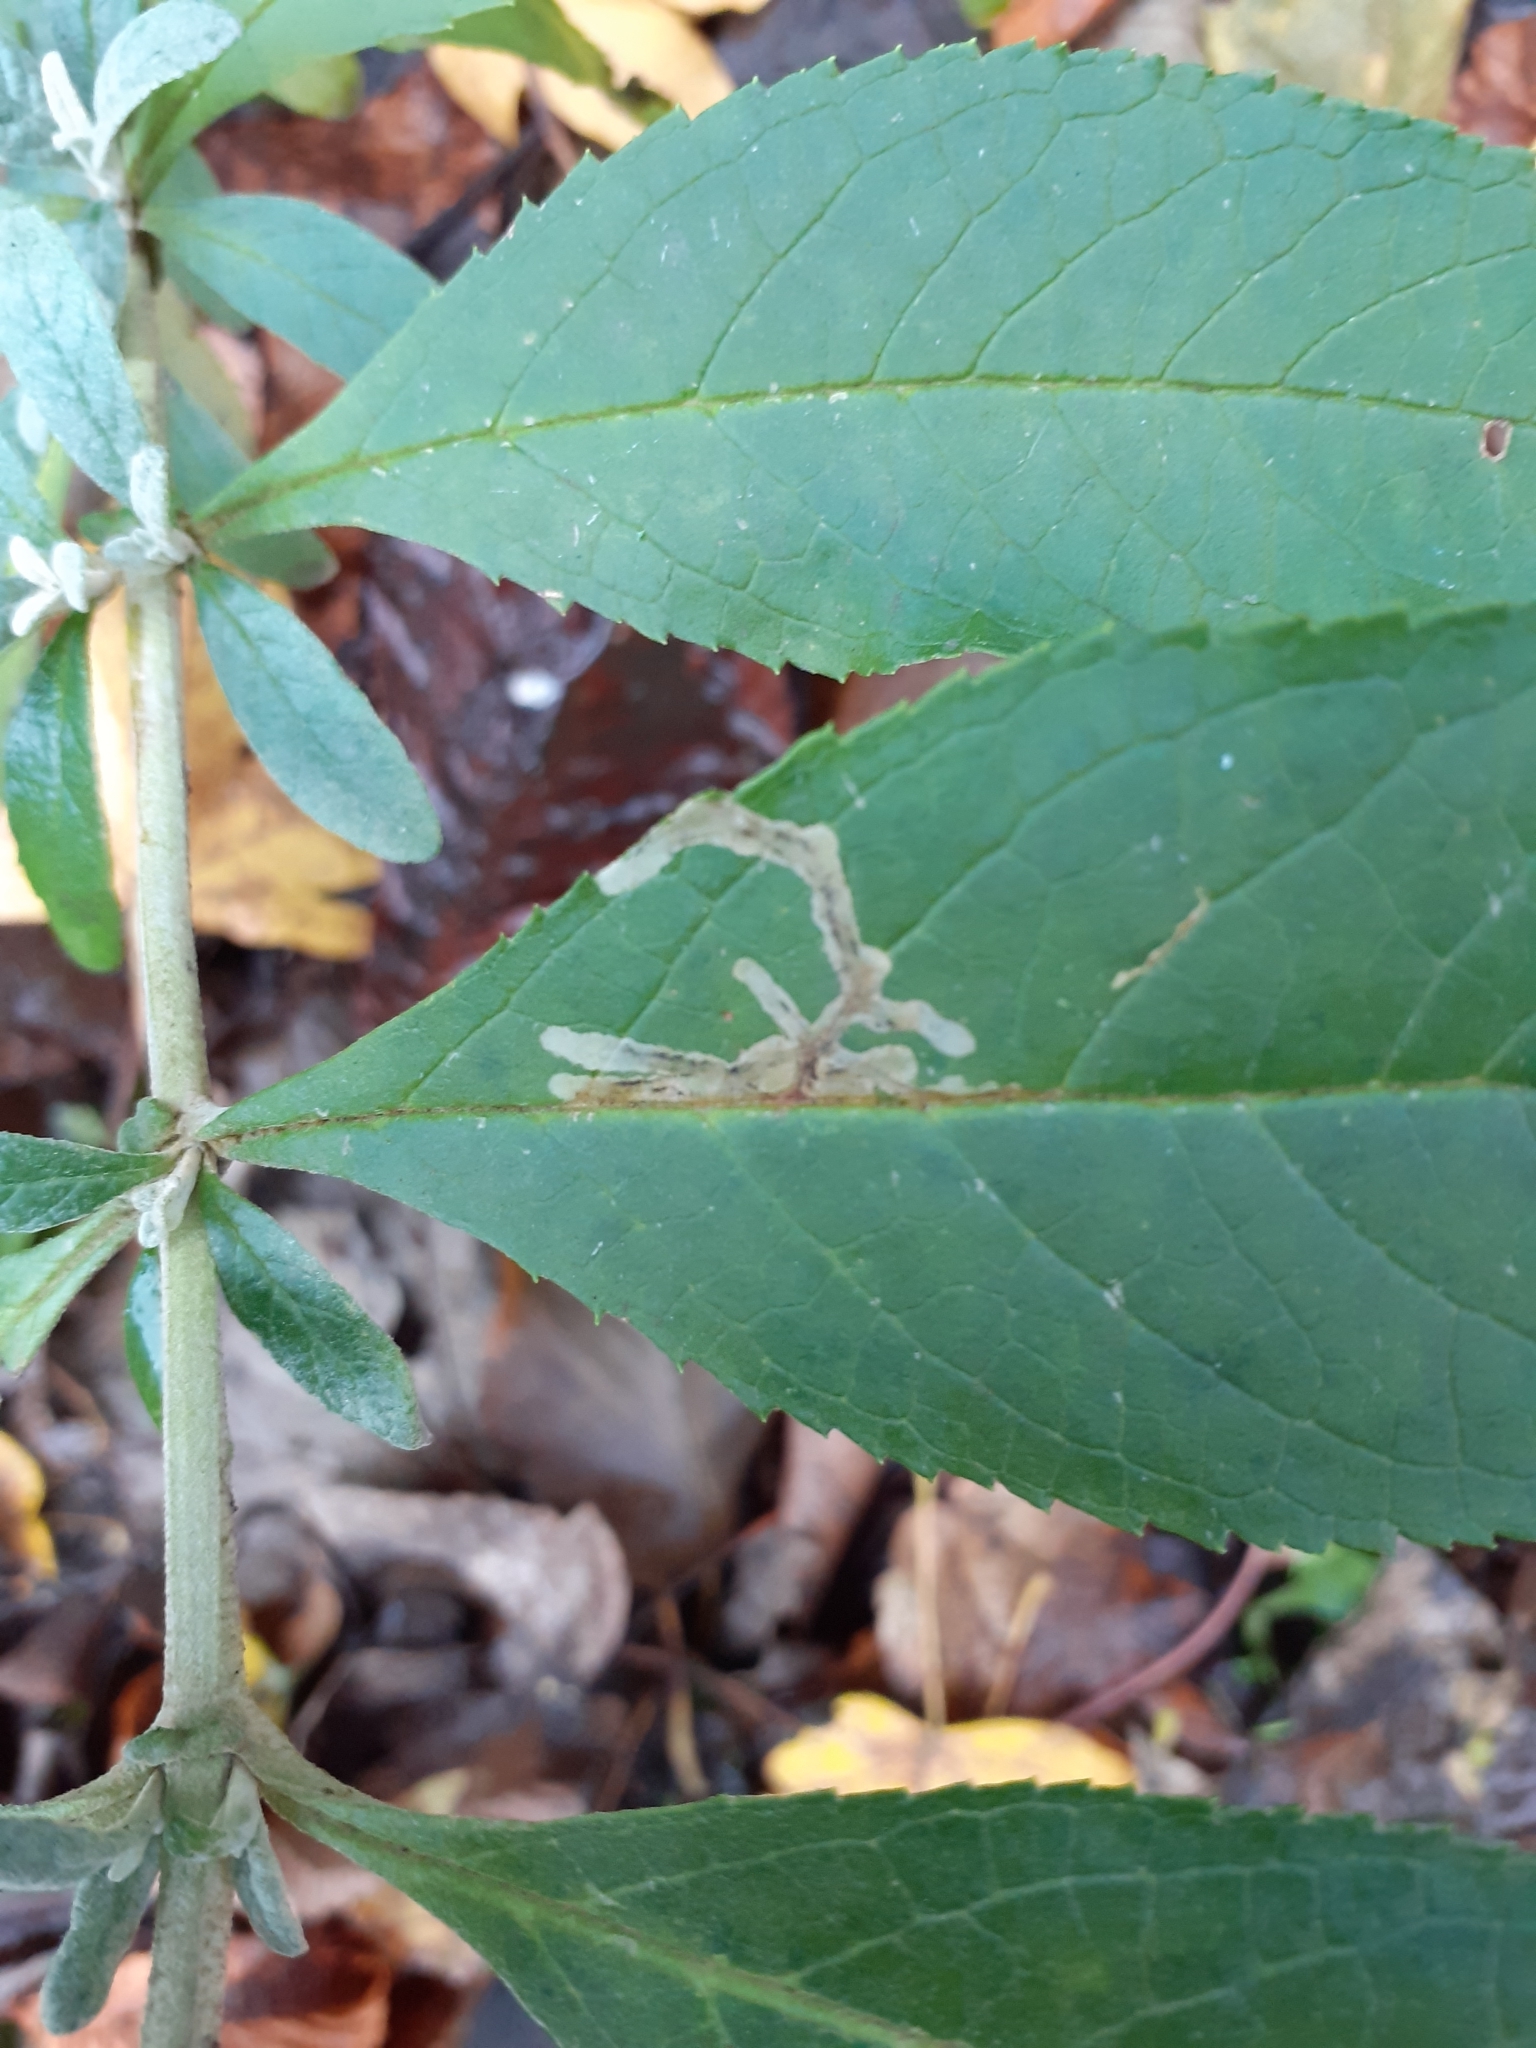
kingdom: Animalia
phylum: Arthropoda
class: Insecta
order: Diptera
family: Agromyzidae
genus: Amauromyza
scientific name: Amauromyza verbasci
